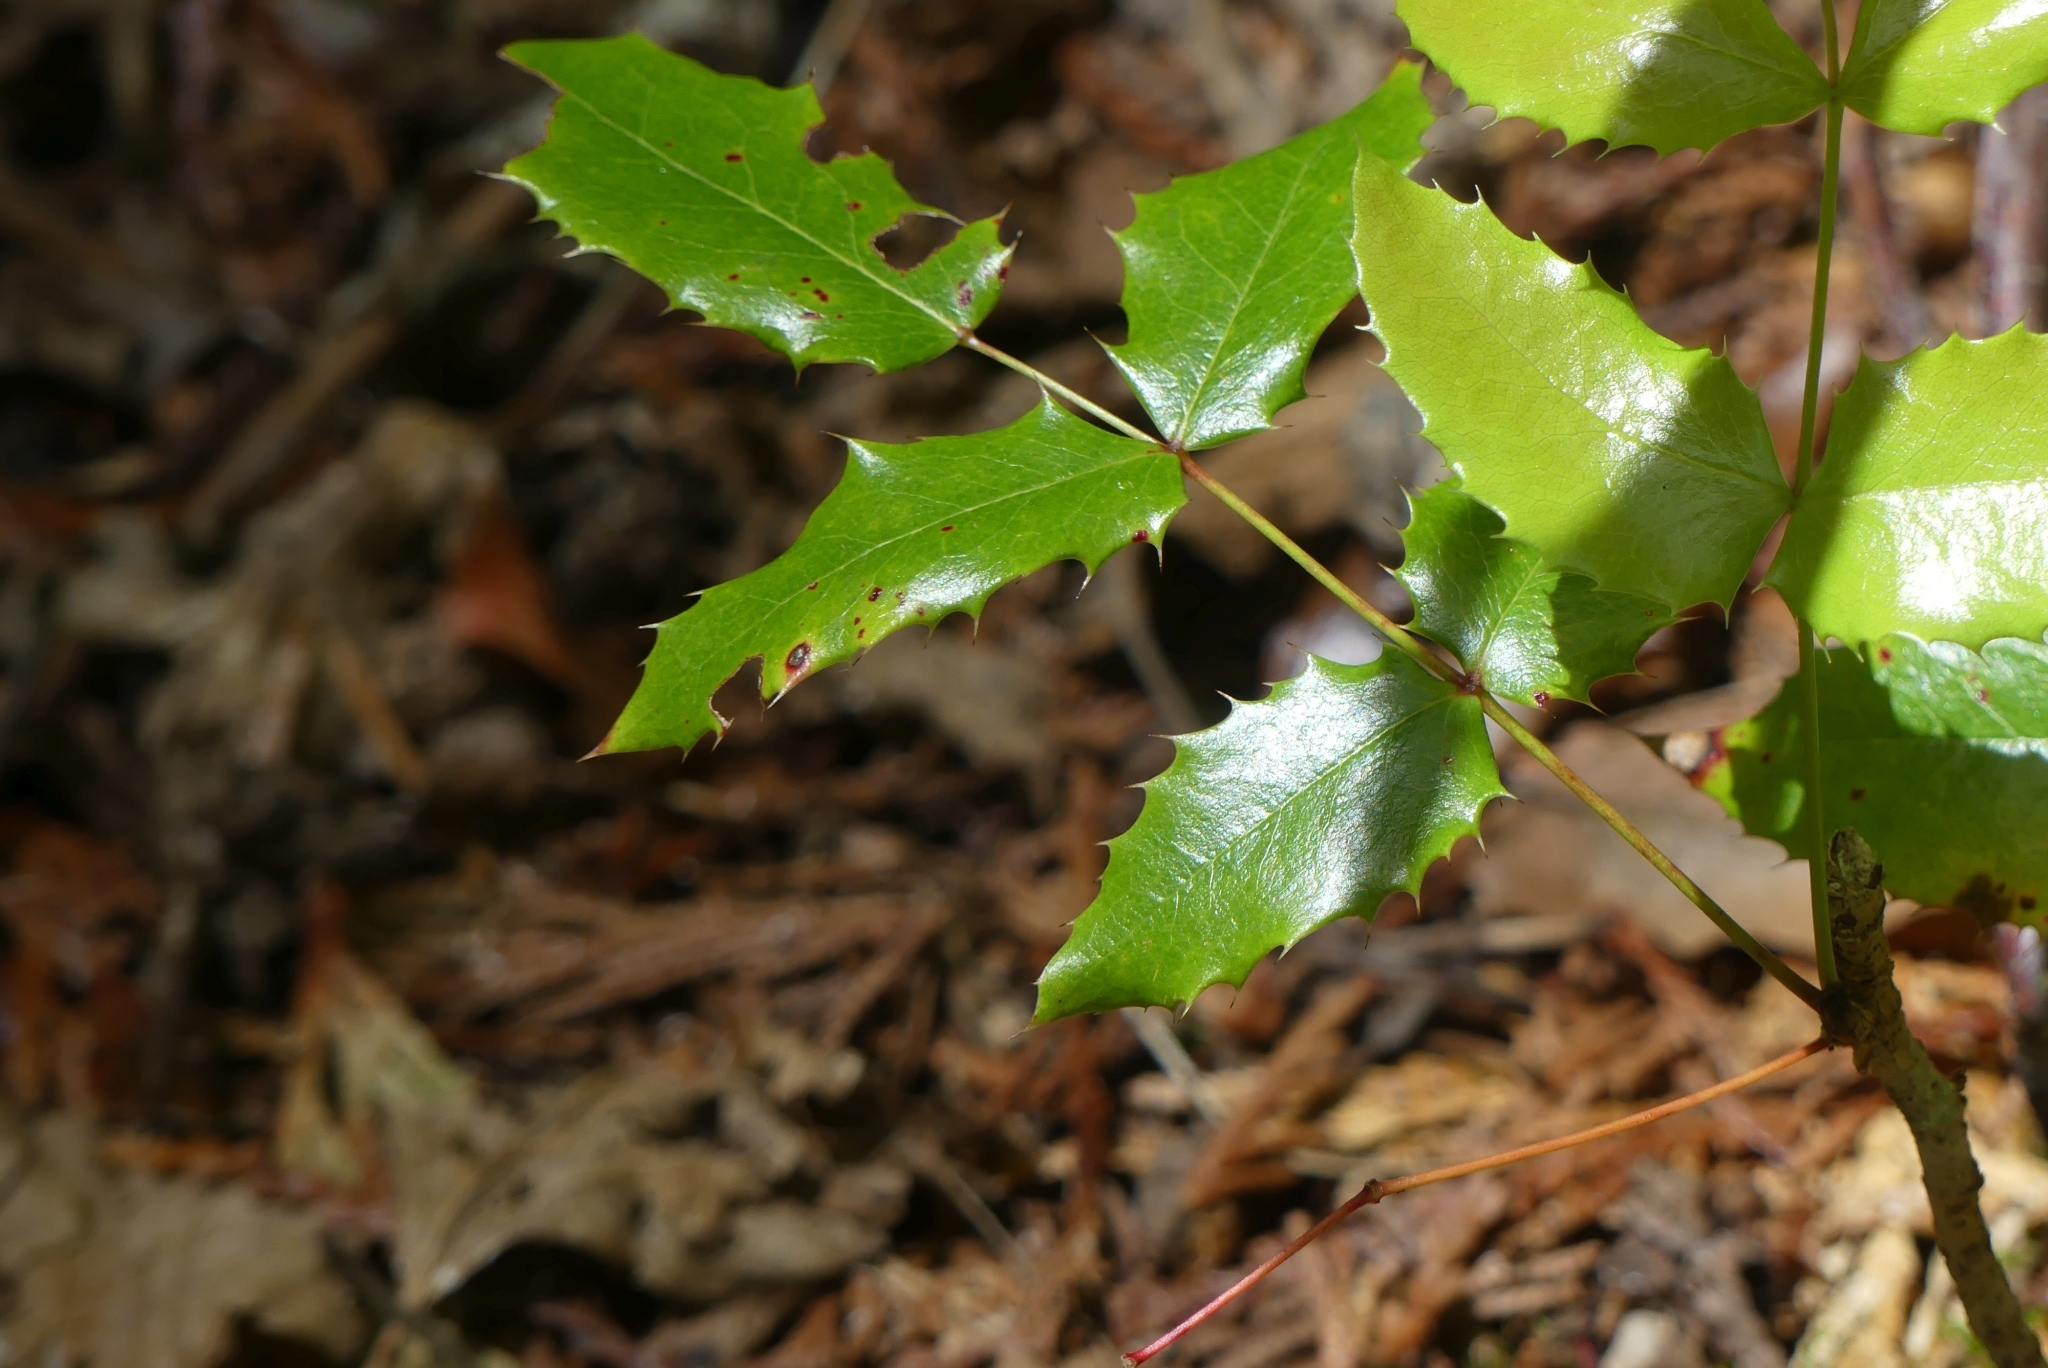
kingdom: Plantae
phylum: Tracheophyta
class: Magnoliopsida
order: Ranunculales
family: Berberidaceae
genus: Mahonia
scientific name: Mahonia aquifolium
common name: Oregon-grape
